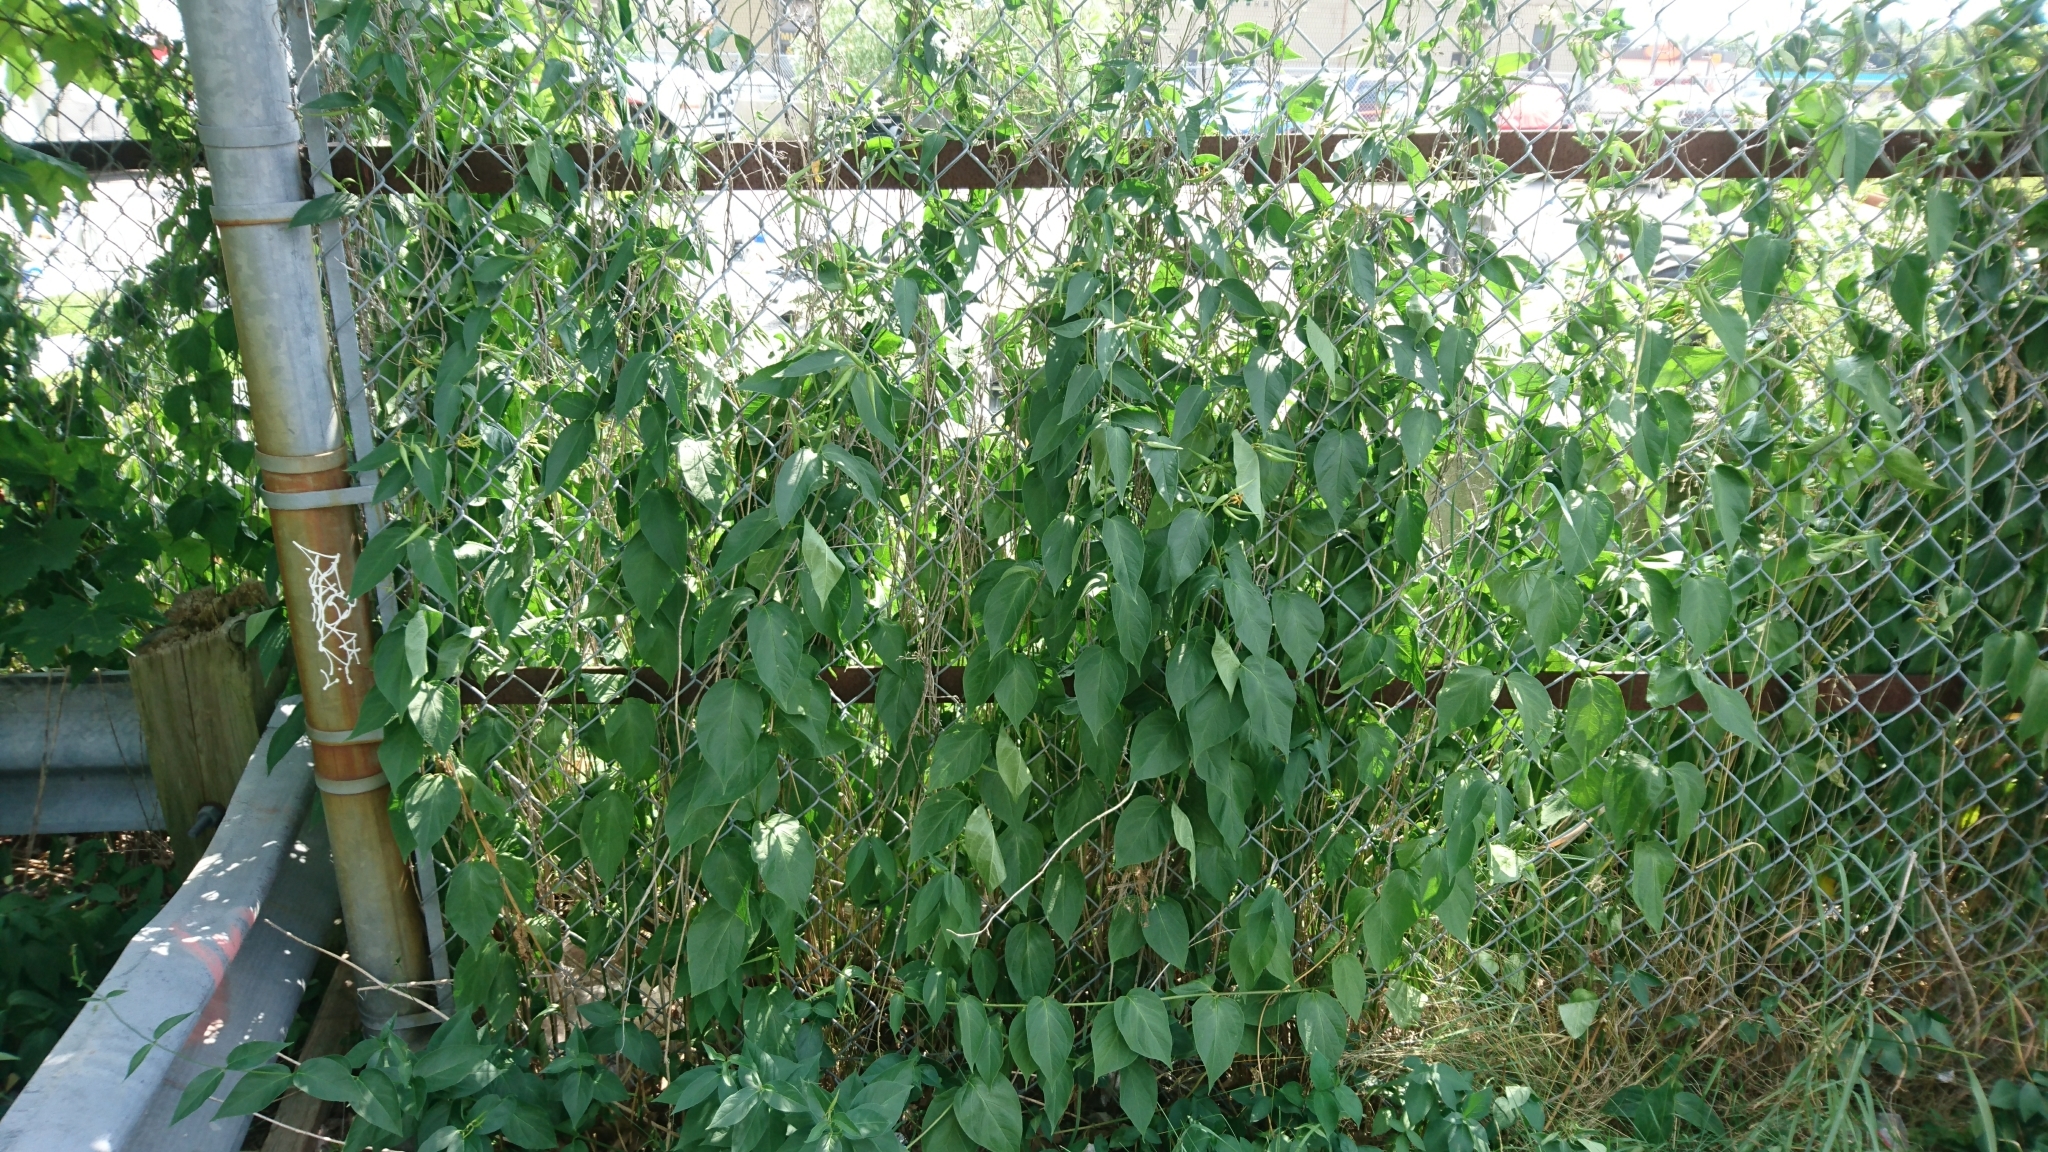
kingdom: Plantae
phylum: Tracheophyta
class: Magnoliopsida
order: Gentianales
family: Apocynaceae
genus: Vincetoxicum
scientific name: Vincetoxicum rossicum
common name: Dog-strangling vine
